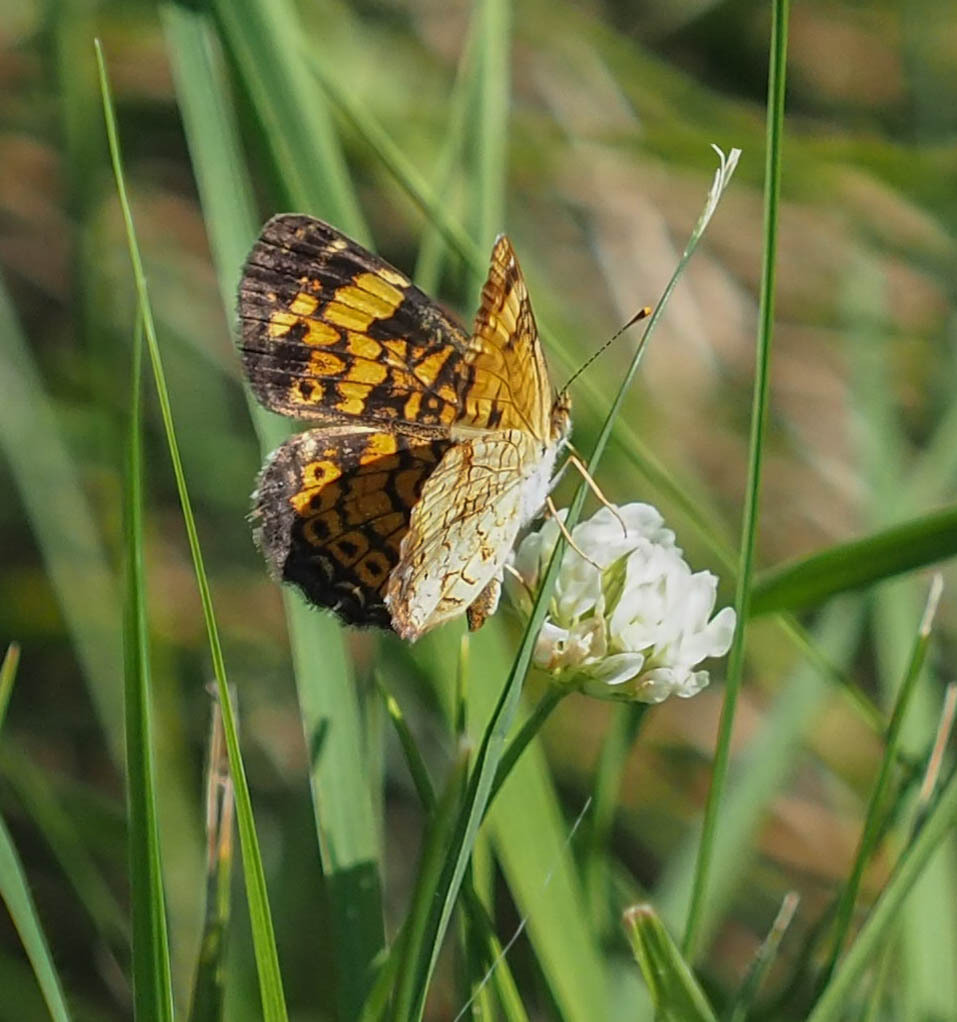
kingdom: Animalia
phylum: Arthropoda
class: Insecta
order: Lepidoptera
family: Nymphalidae
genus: Phyciodes
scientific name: Phyciodes tharos
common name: Pearl crescent
